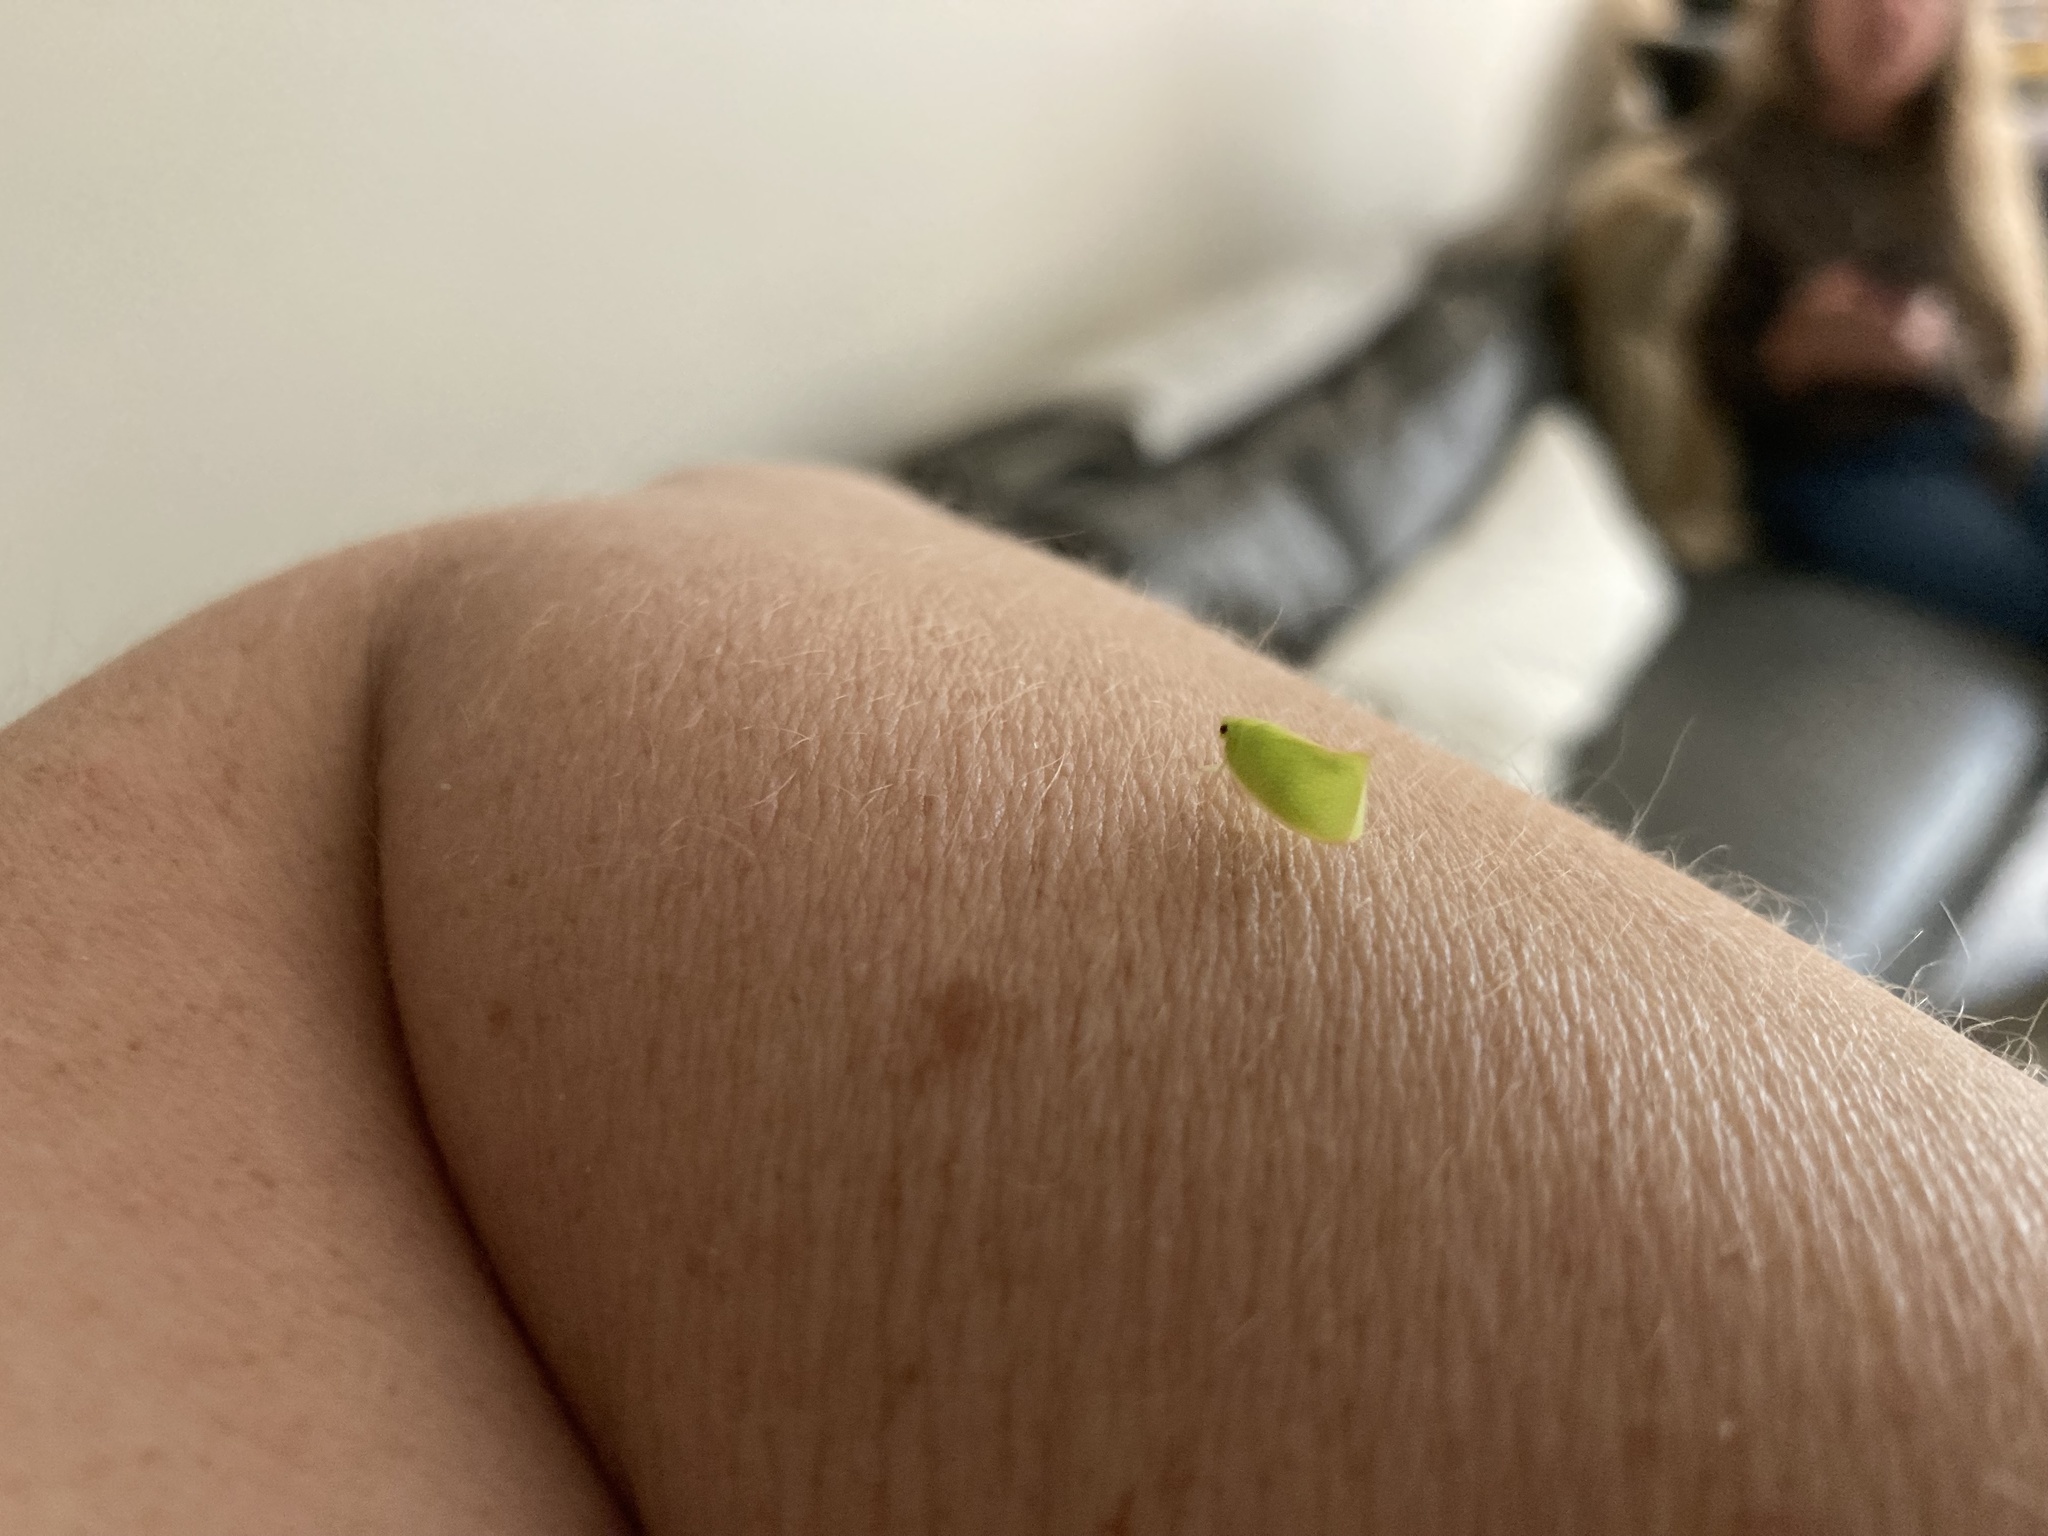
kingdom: Animalia
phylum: Arthropoda
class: Insecta
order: Hemiptera
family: Flatidae
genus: Siphanta
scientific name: Siphanta acuta
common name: Torpedo bug
